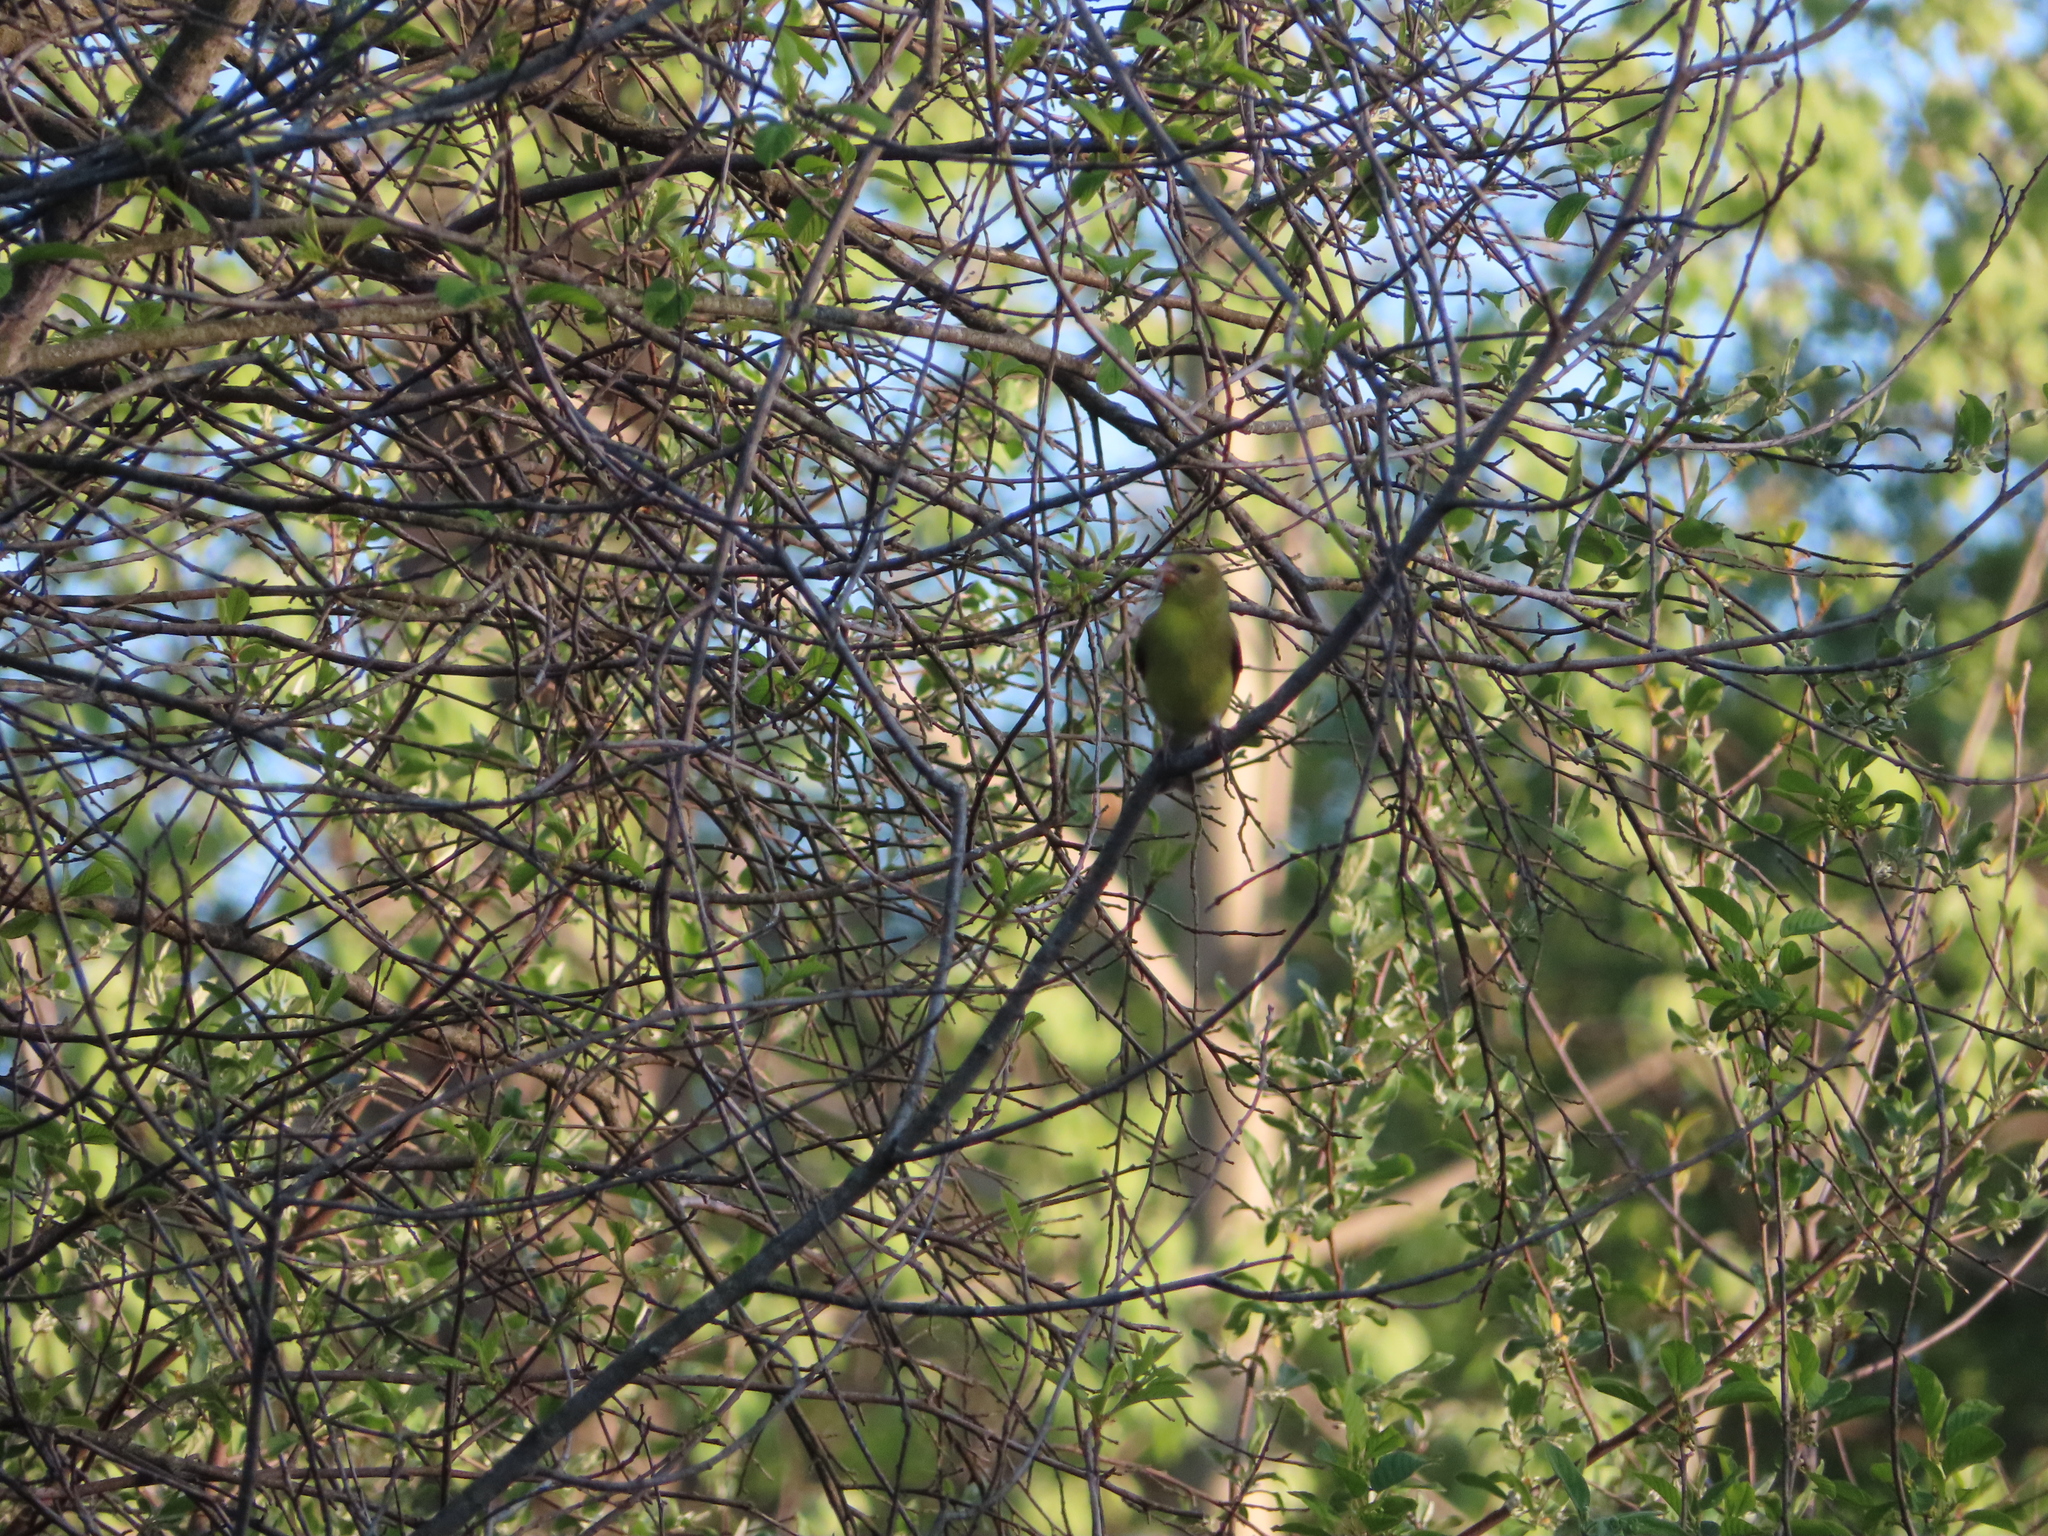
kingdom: Animalia
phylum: Chordata
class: Aves
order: Passeriformes
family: Fringillidae
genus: Spinus
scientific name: Spinus tristis
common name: American goldfinch
